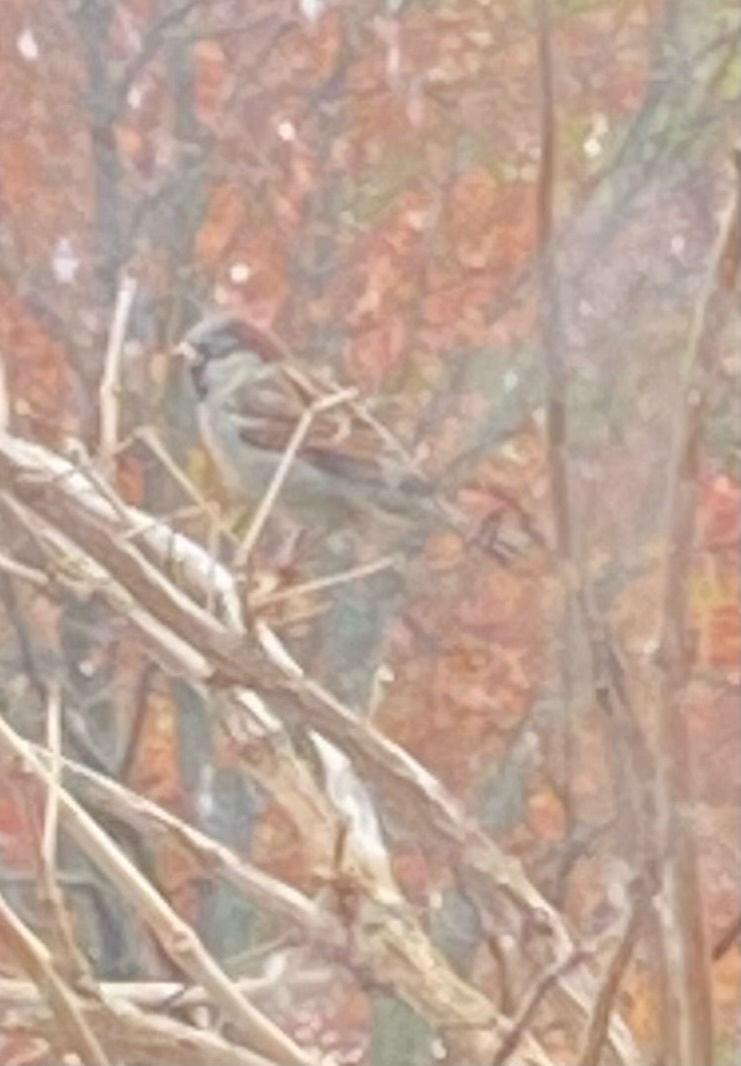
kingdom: Animalia
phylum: Chordata
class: Aves
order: Passeriformes
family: Passeridae
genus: Passer
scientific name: Passer domesticus
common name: House sparrow
